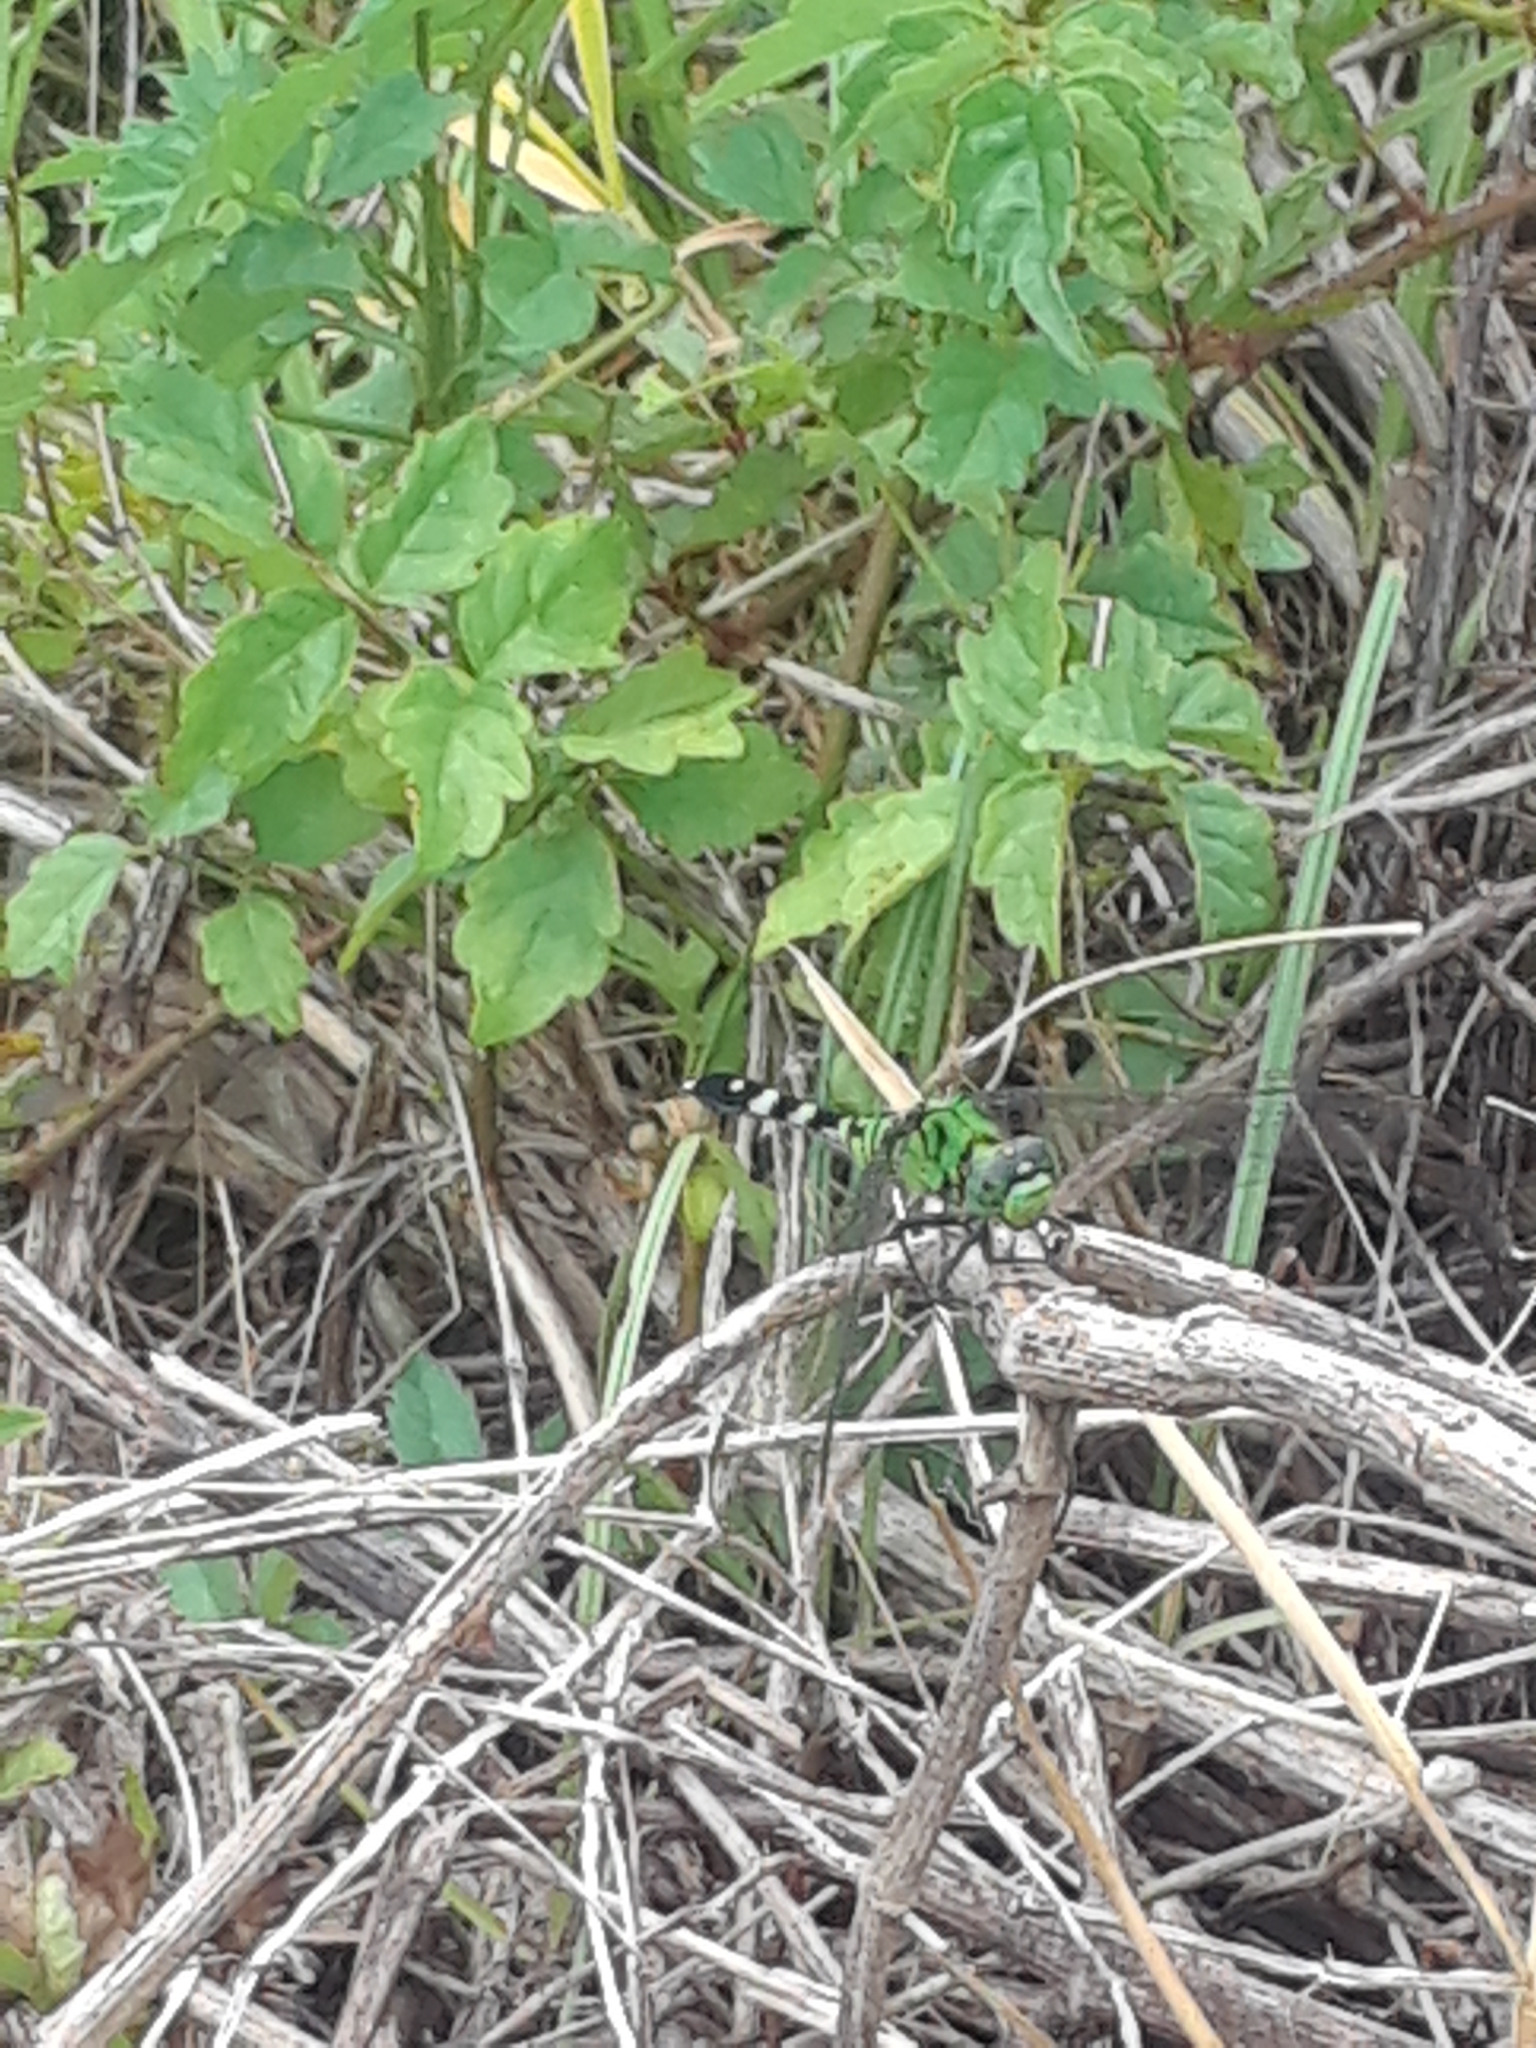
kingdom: Animalia
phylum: Arthropoda
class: Insecta
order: Odonata
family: Libellulidae
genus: Erythemis
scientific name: Erythemis simplicicollis
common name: Eastern pondhawk
